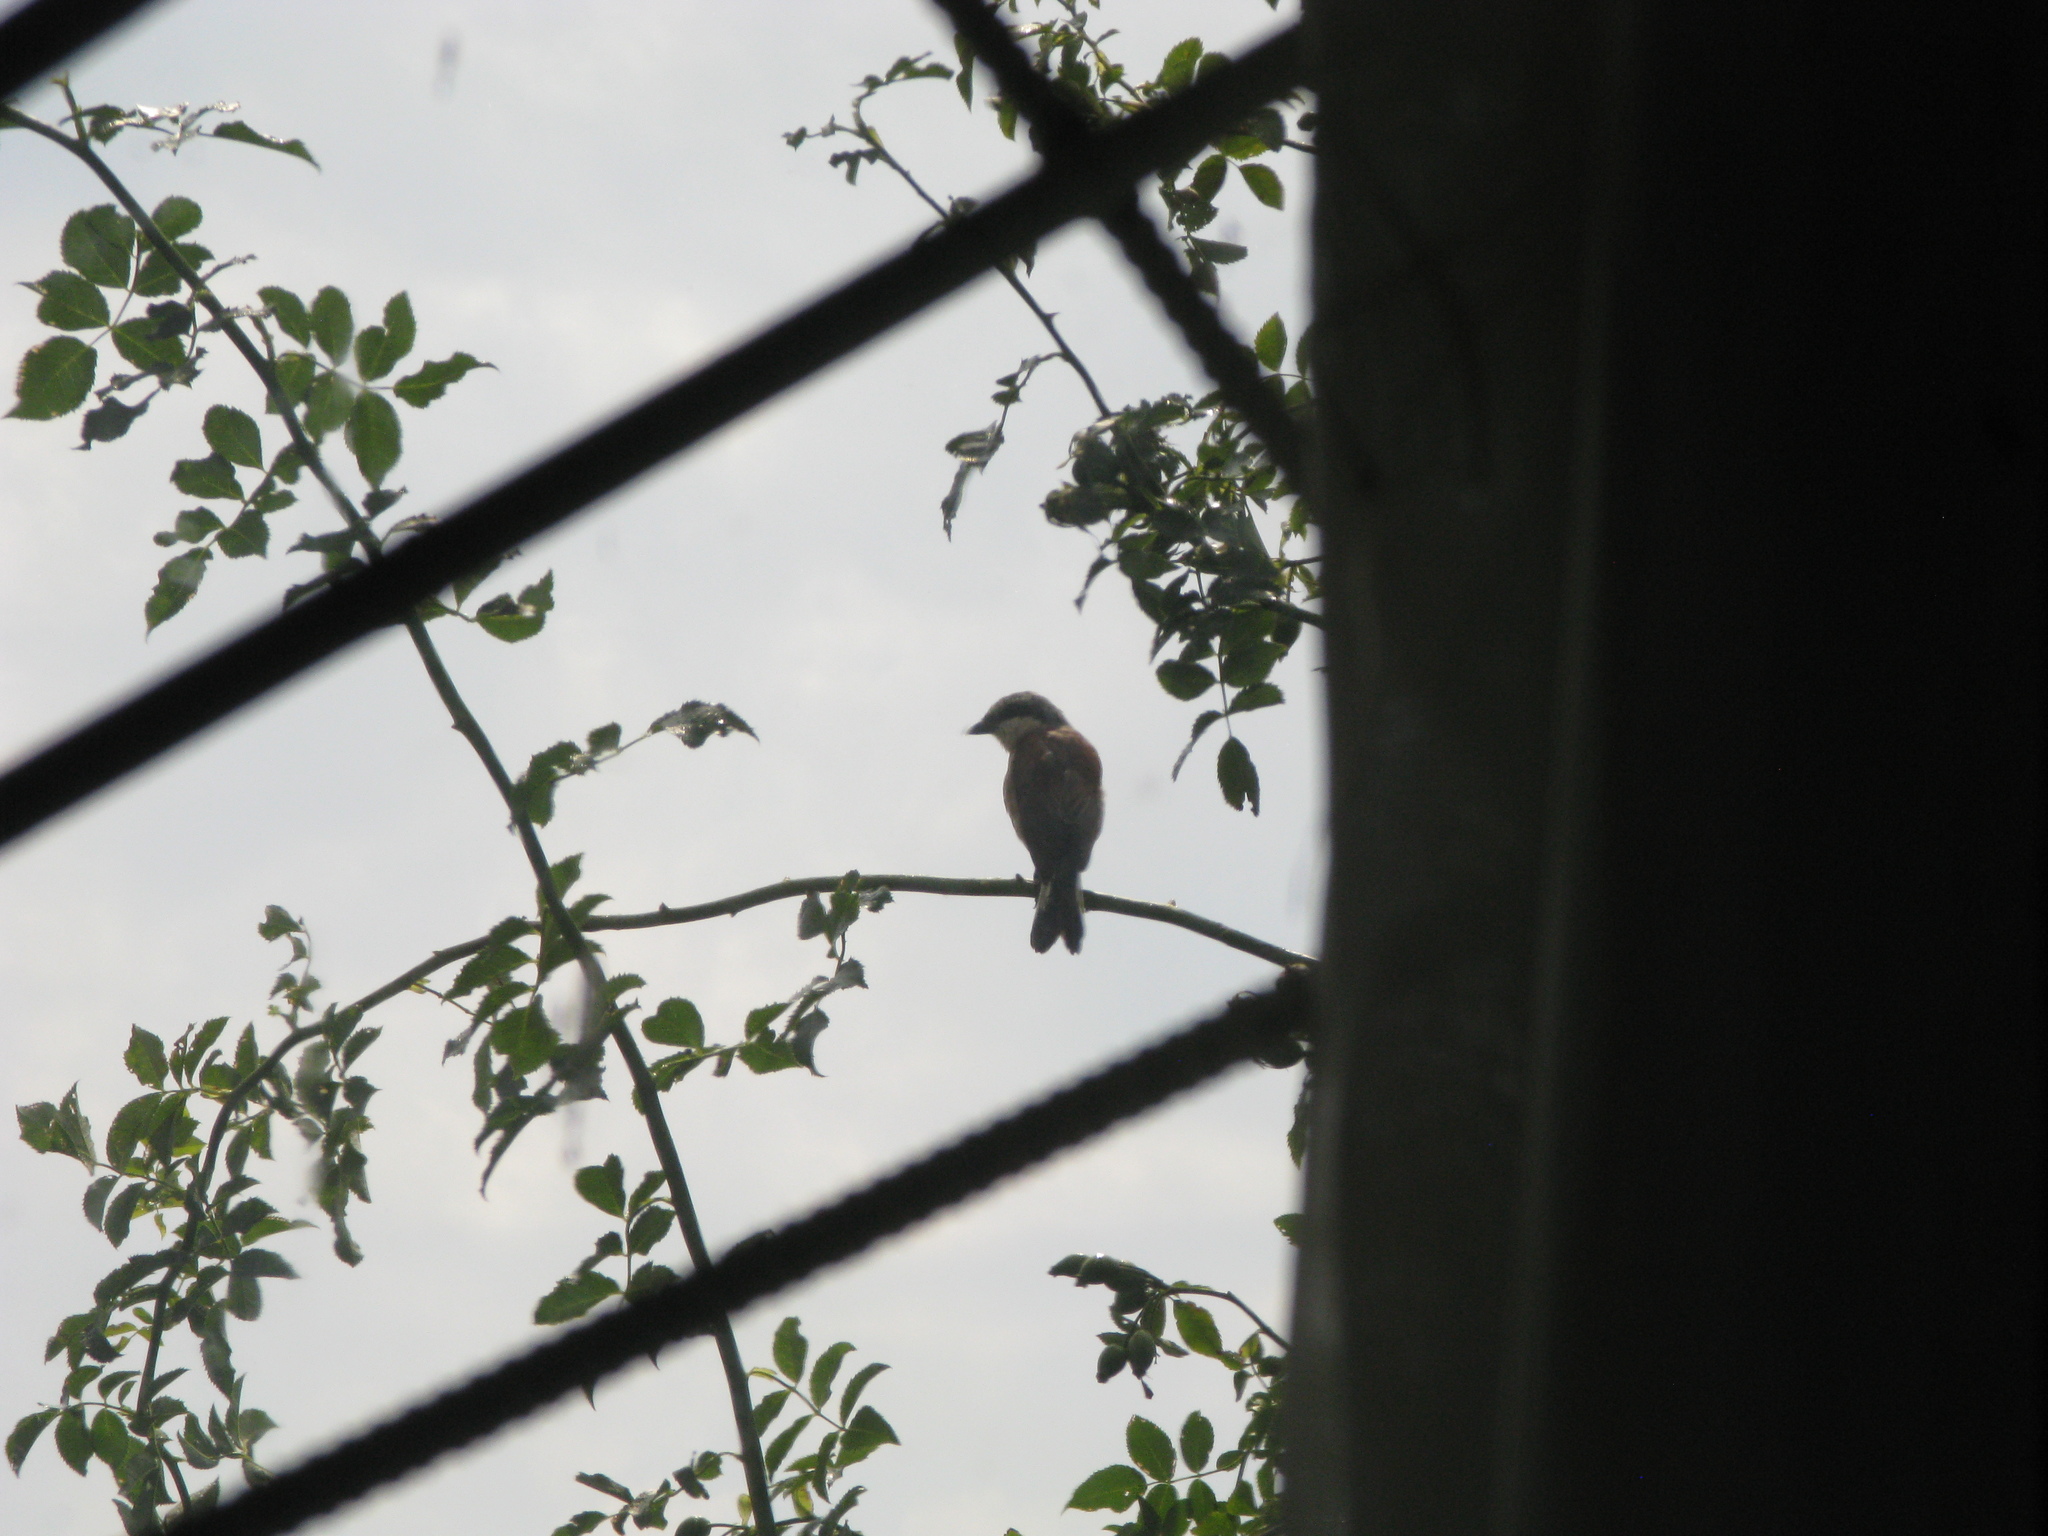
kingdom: Animalia
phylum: Chordata
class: Aves
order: Passeriformes
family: Laniidae
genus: Lanius
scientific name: Lanius collurio
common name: Red-backed shrike
